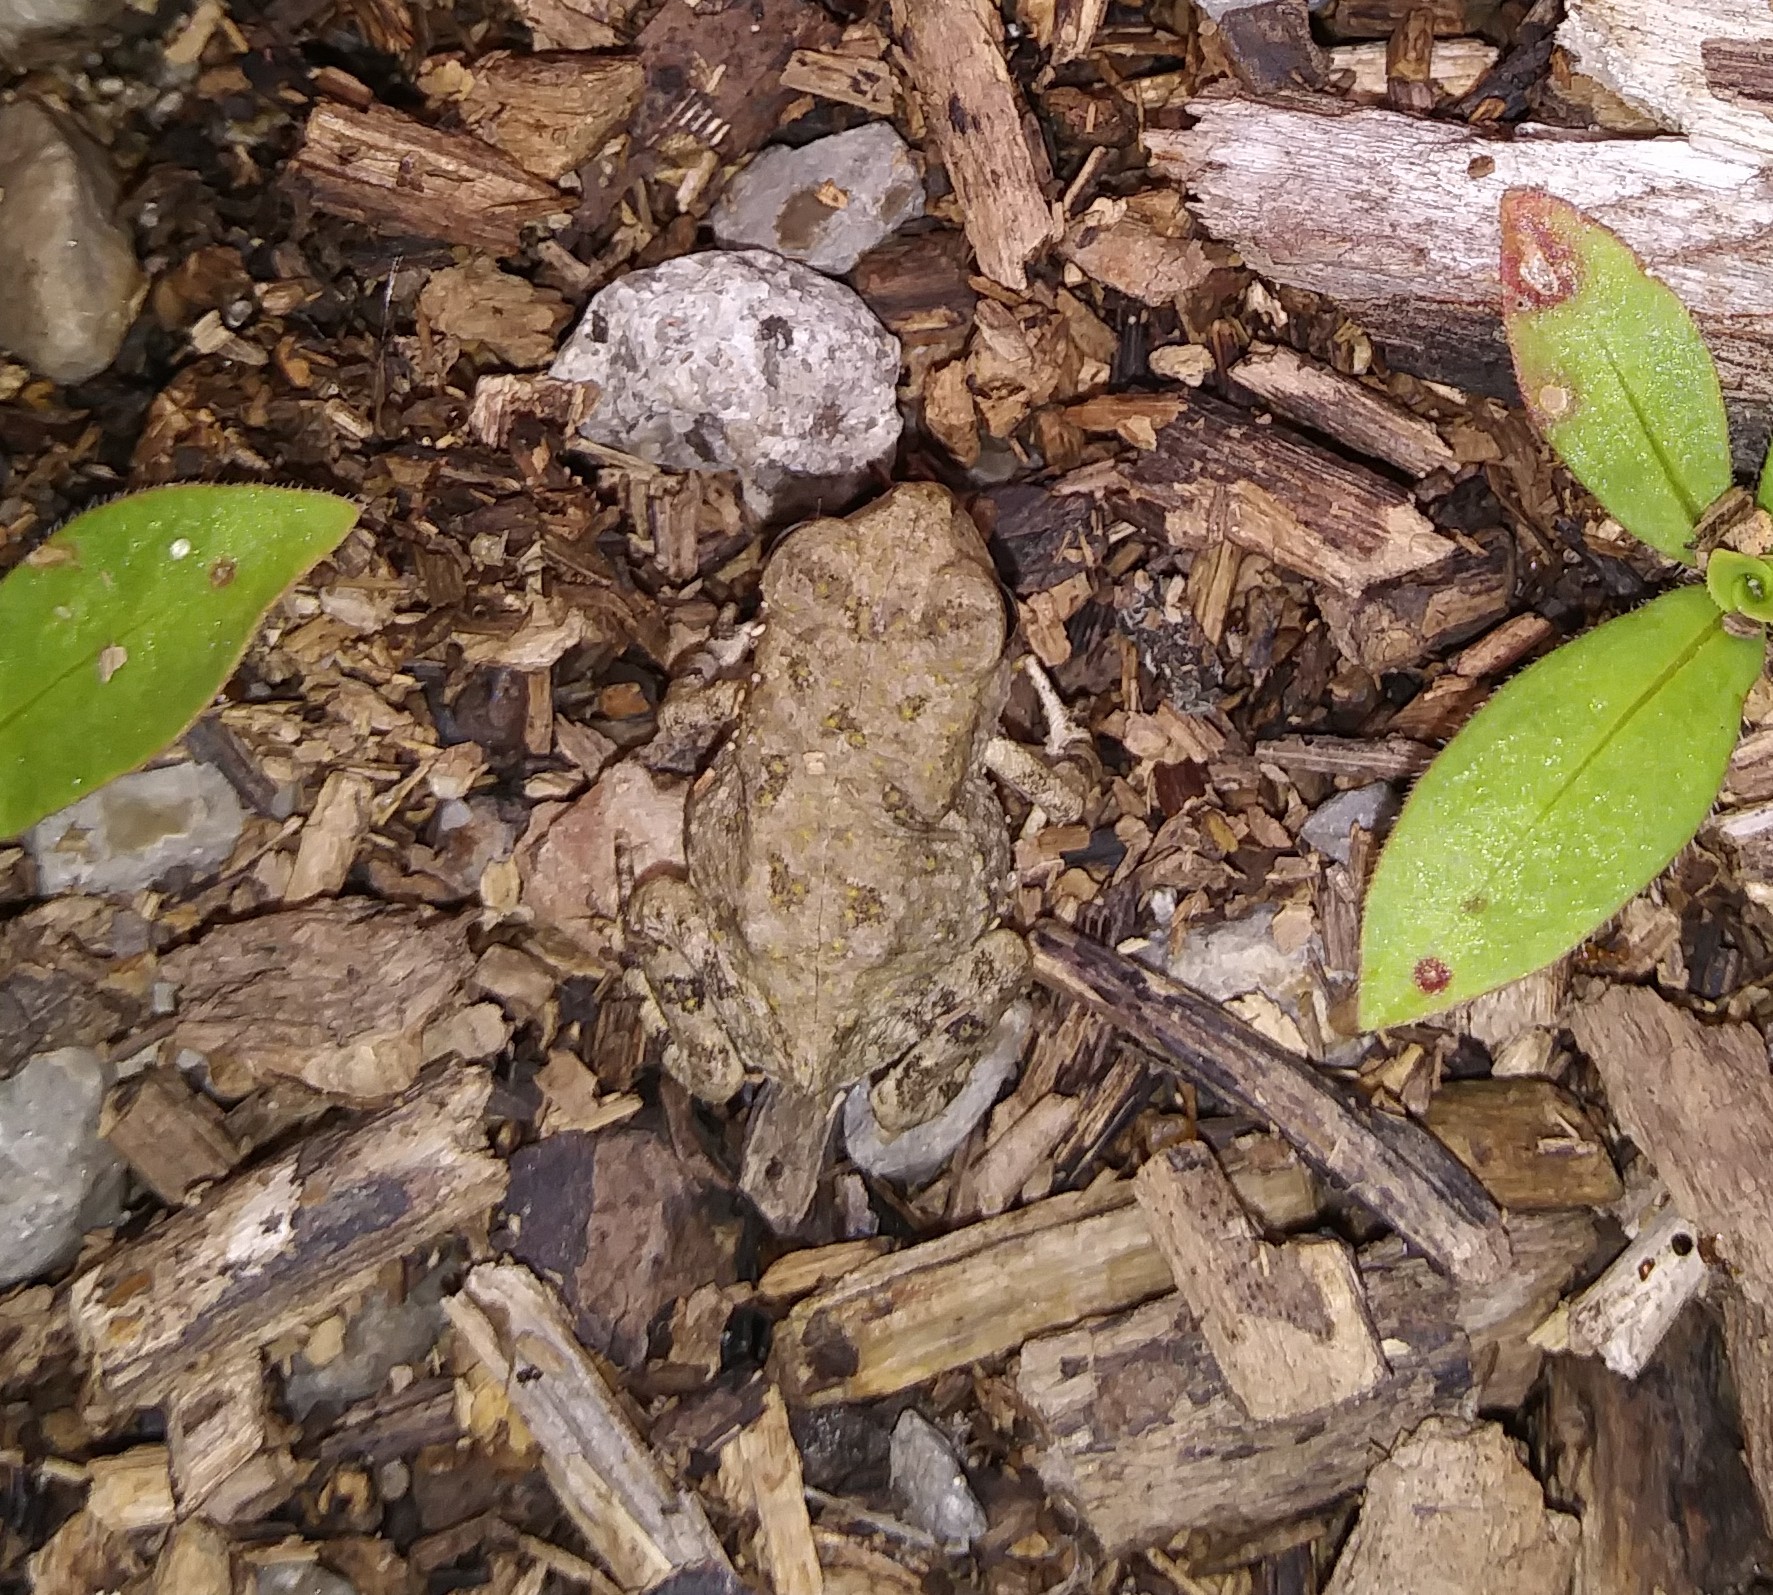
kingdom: Animalia
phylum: Chordata
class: Amphibia
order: Anura
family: Bufonidae
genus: Anaxyrus
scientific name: Anaxyrus fowleri
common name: Fowler's toad
